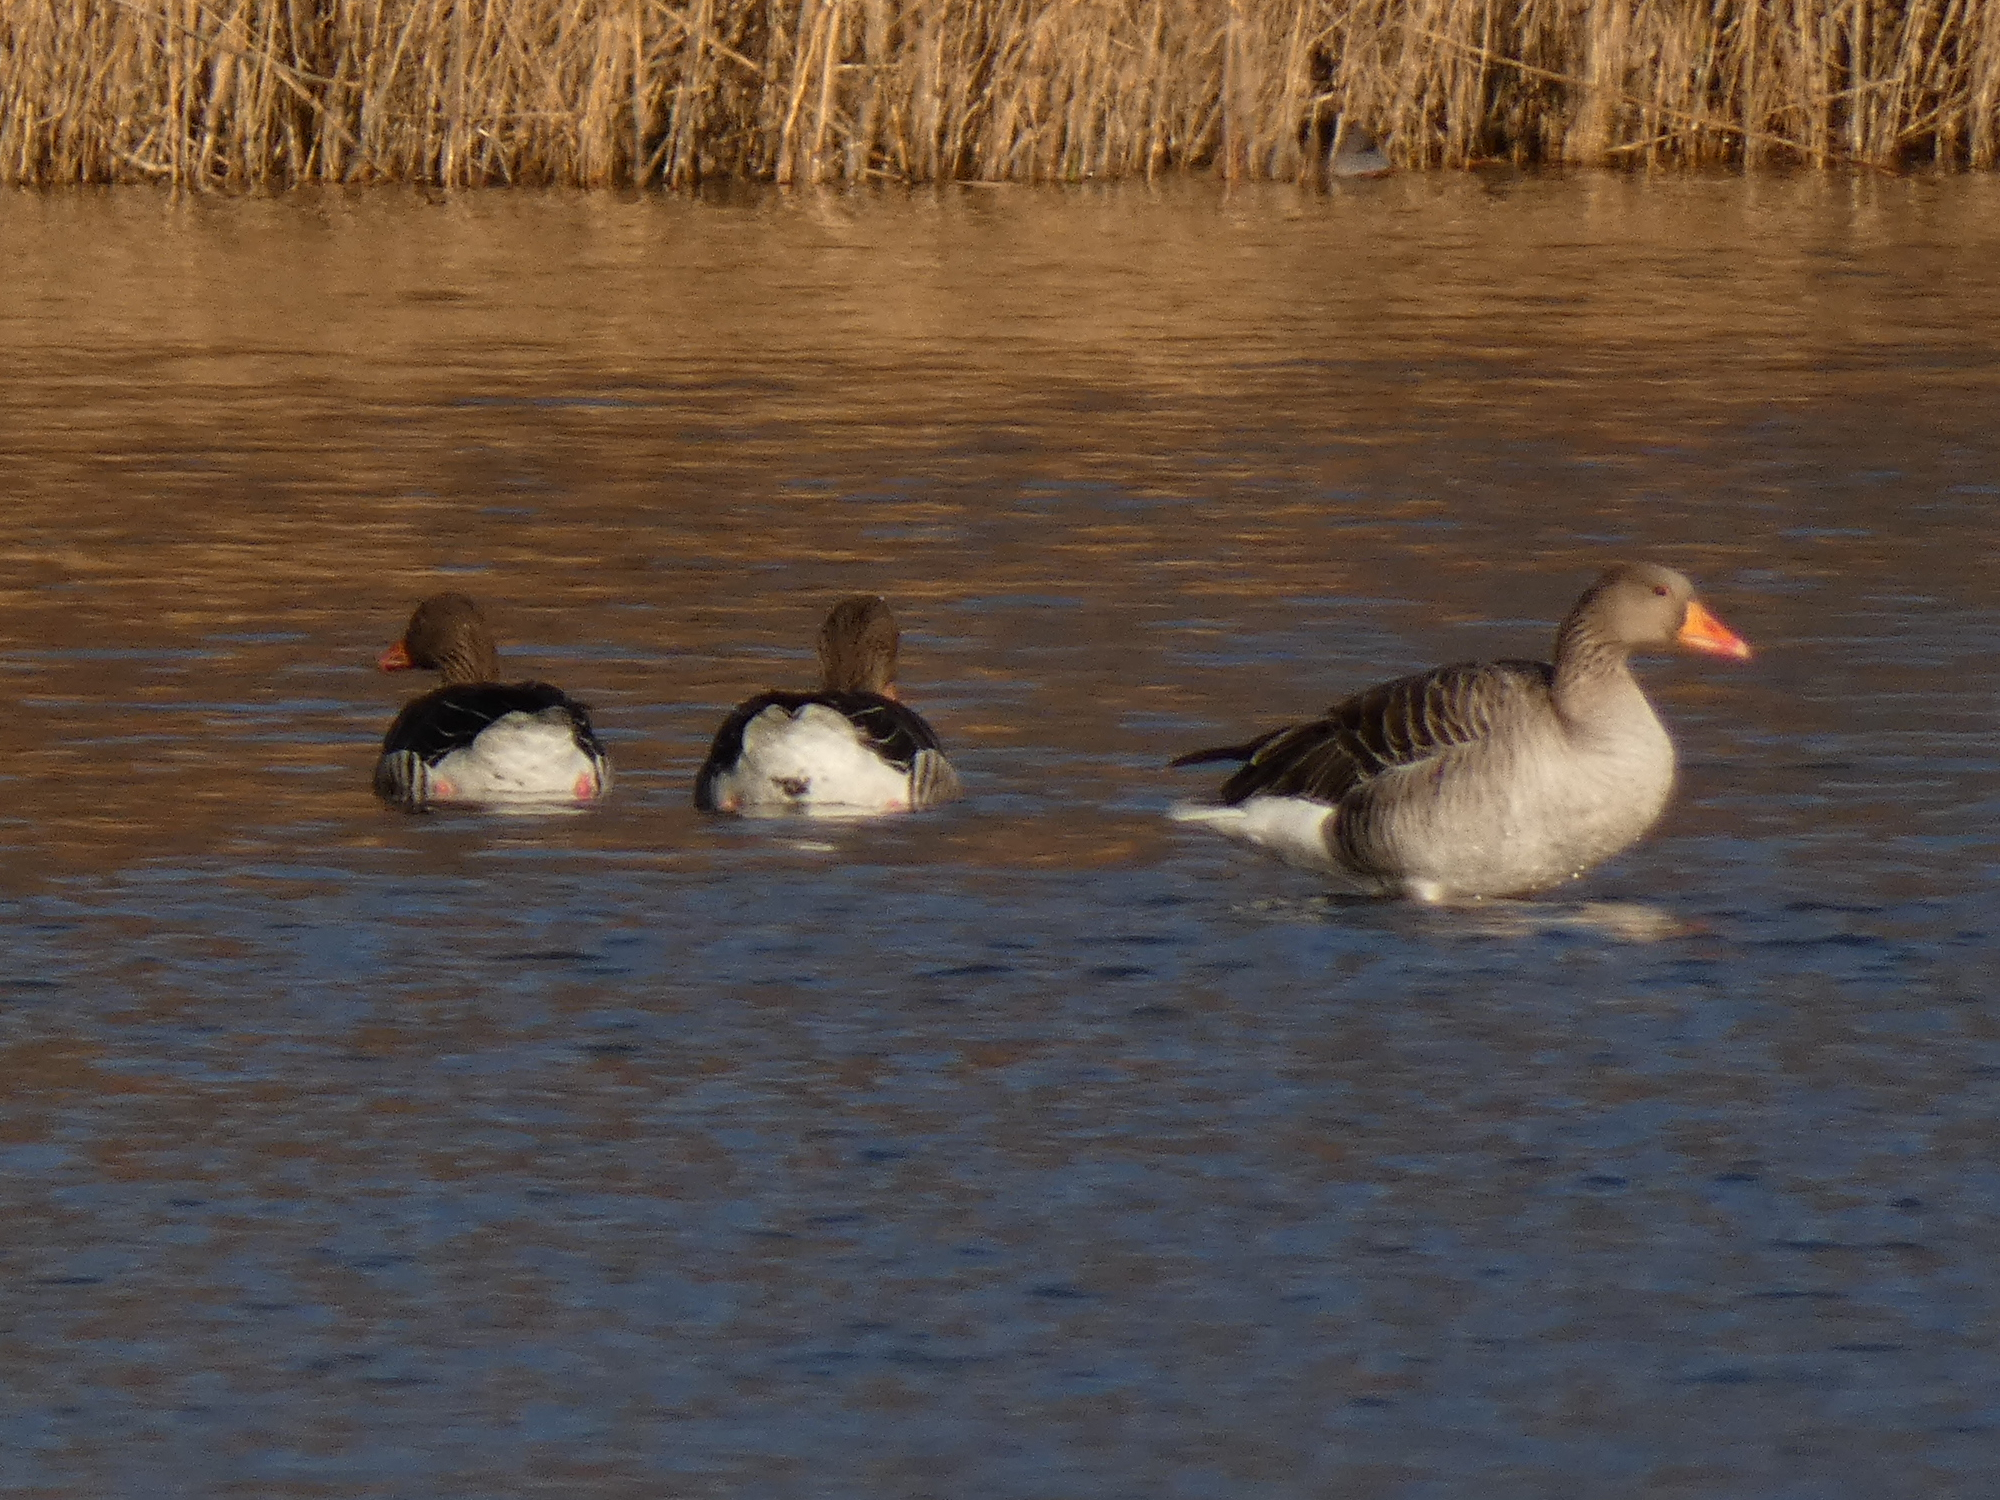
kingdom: Animalia
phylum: Chordata
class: Aves
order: Anseriformes
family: Anatidae
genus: Anser
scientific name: Anser anser
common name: Greylag goose
